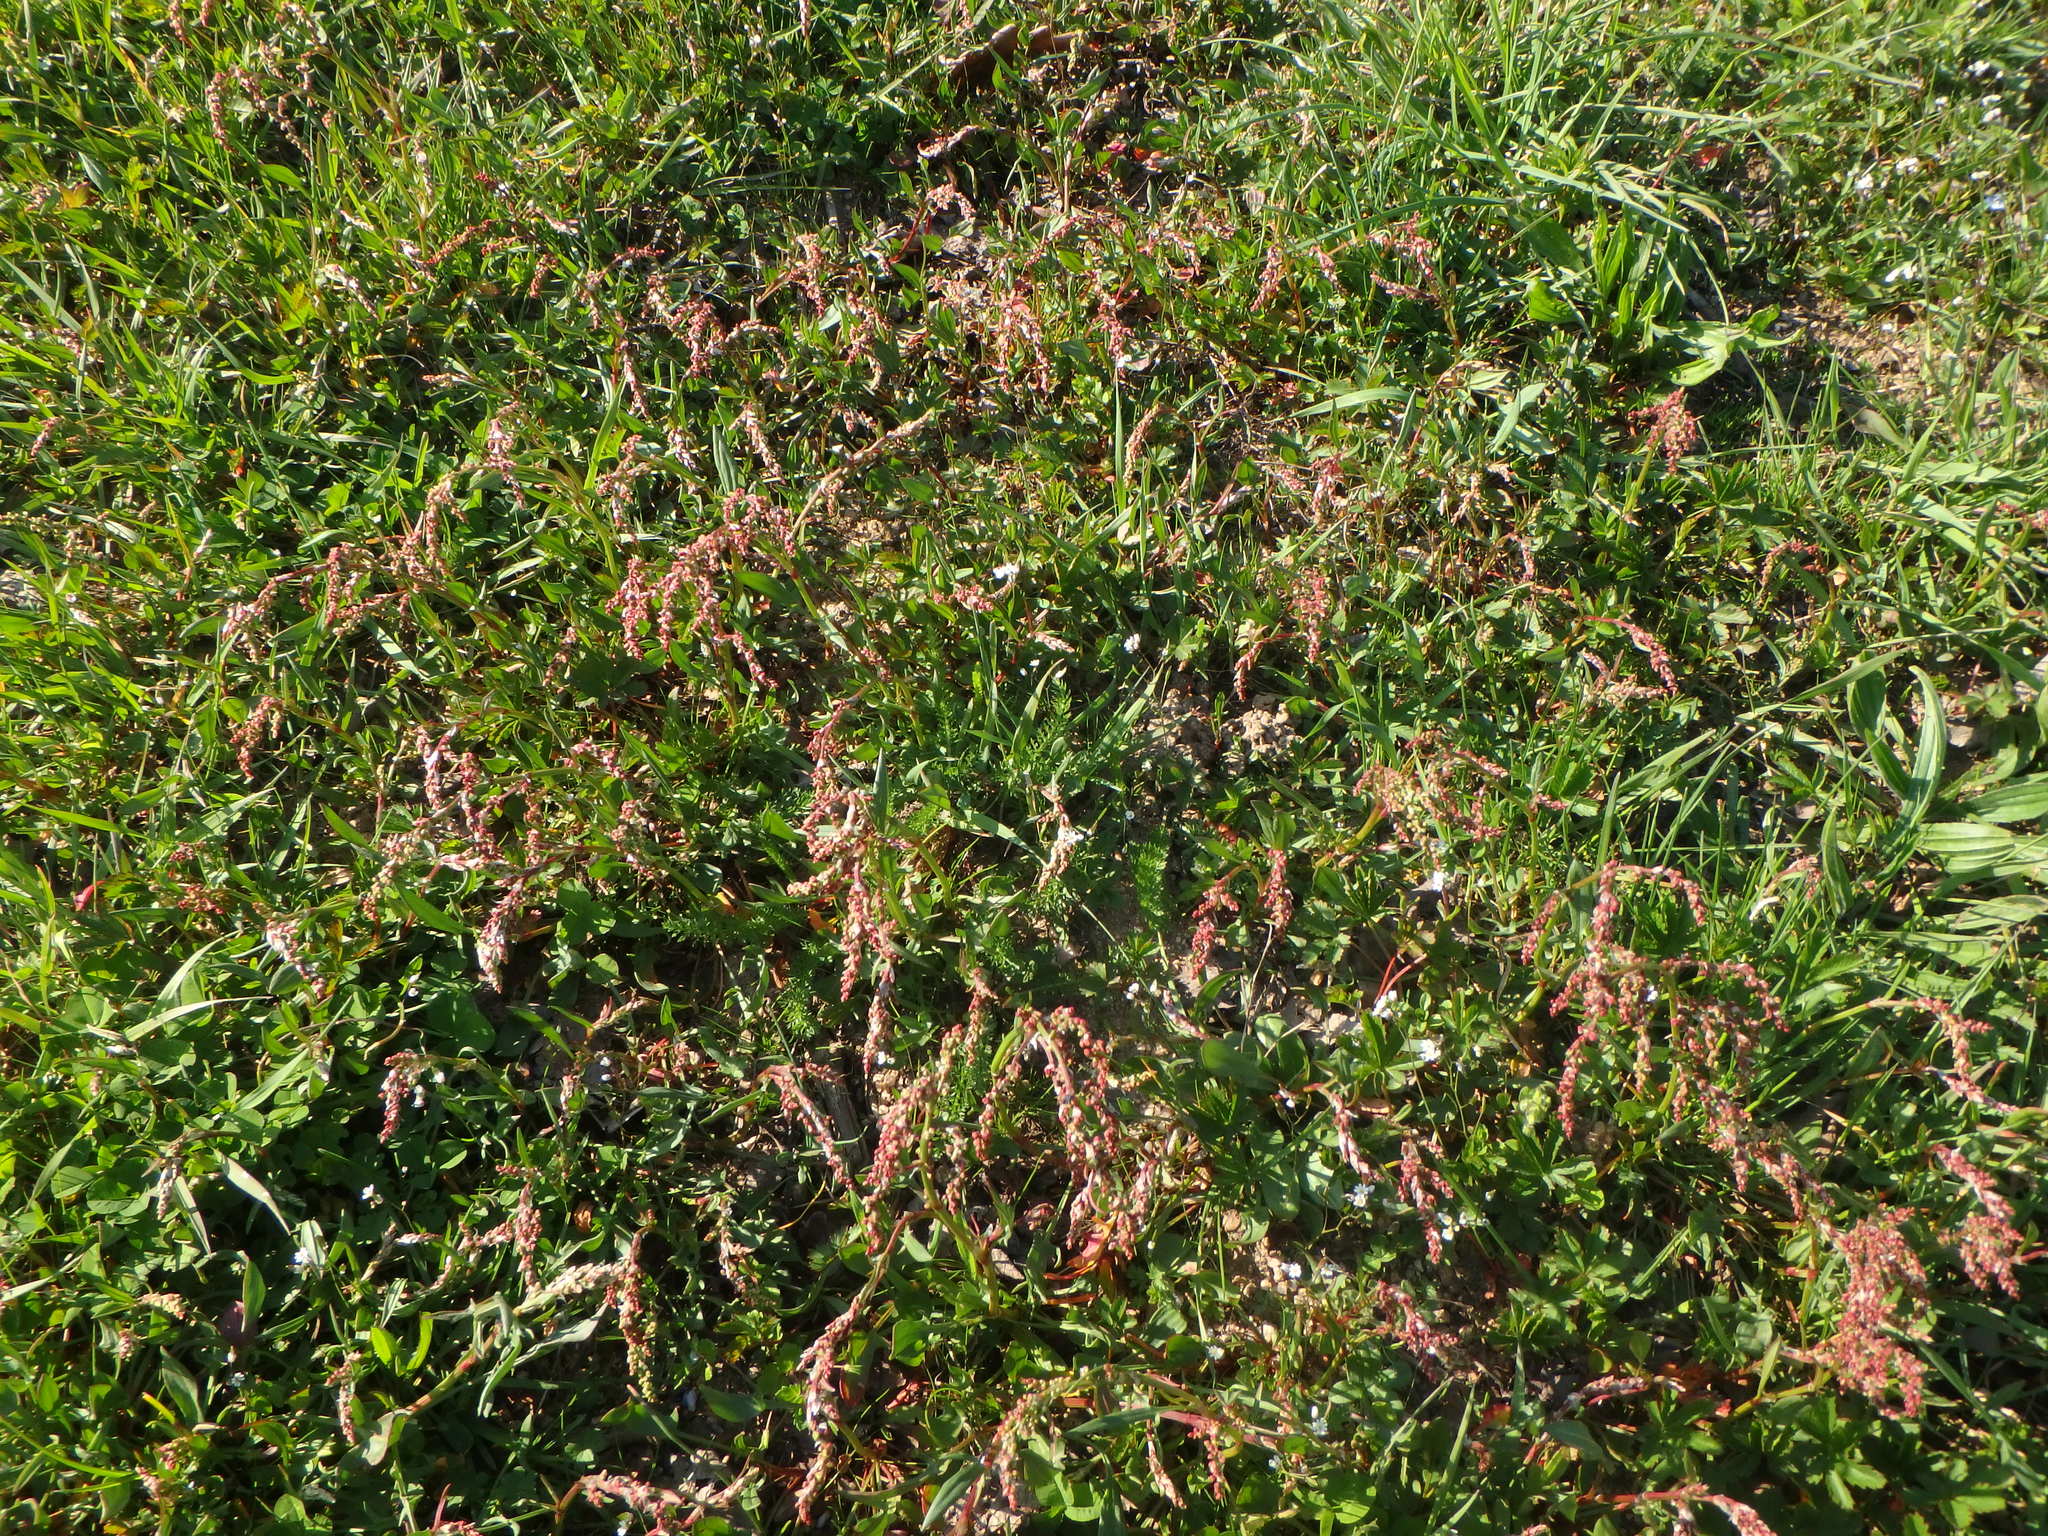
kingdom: Plantae
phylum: Tracheophyta
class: Magnoliopsida
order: Caryophyllales
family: Polygonaceae
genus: Rumex
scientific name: Rumex acetosella
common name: Common sheep sorrel
